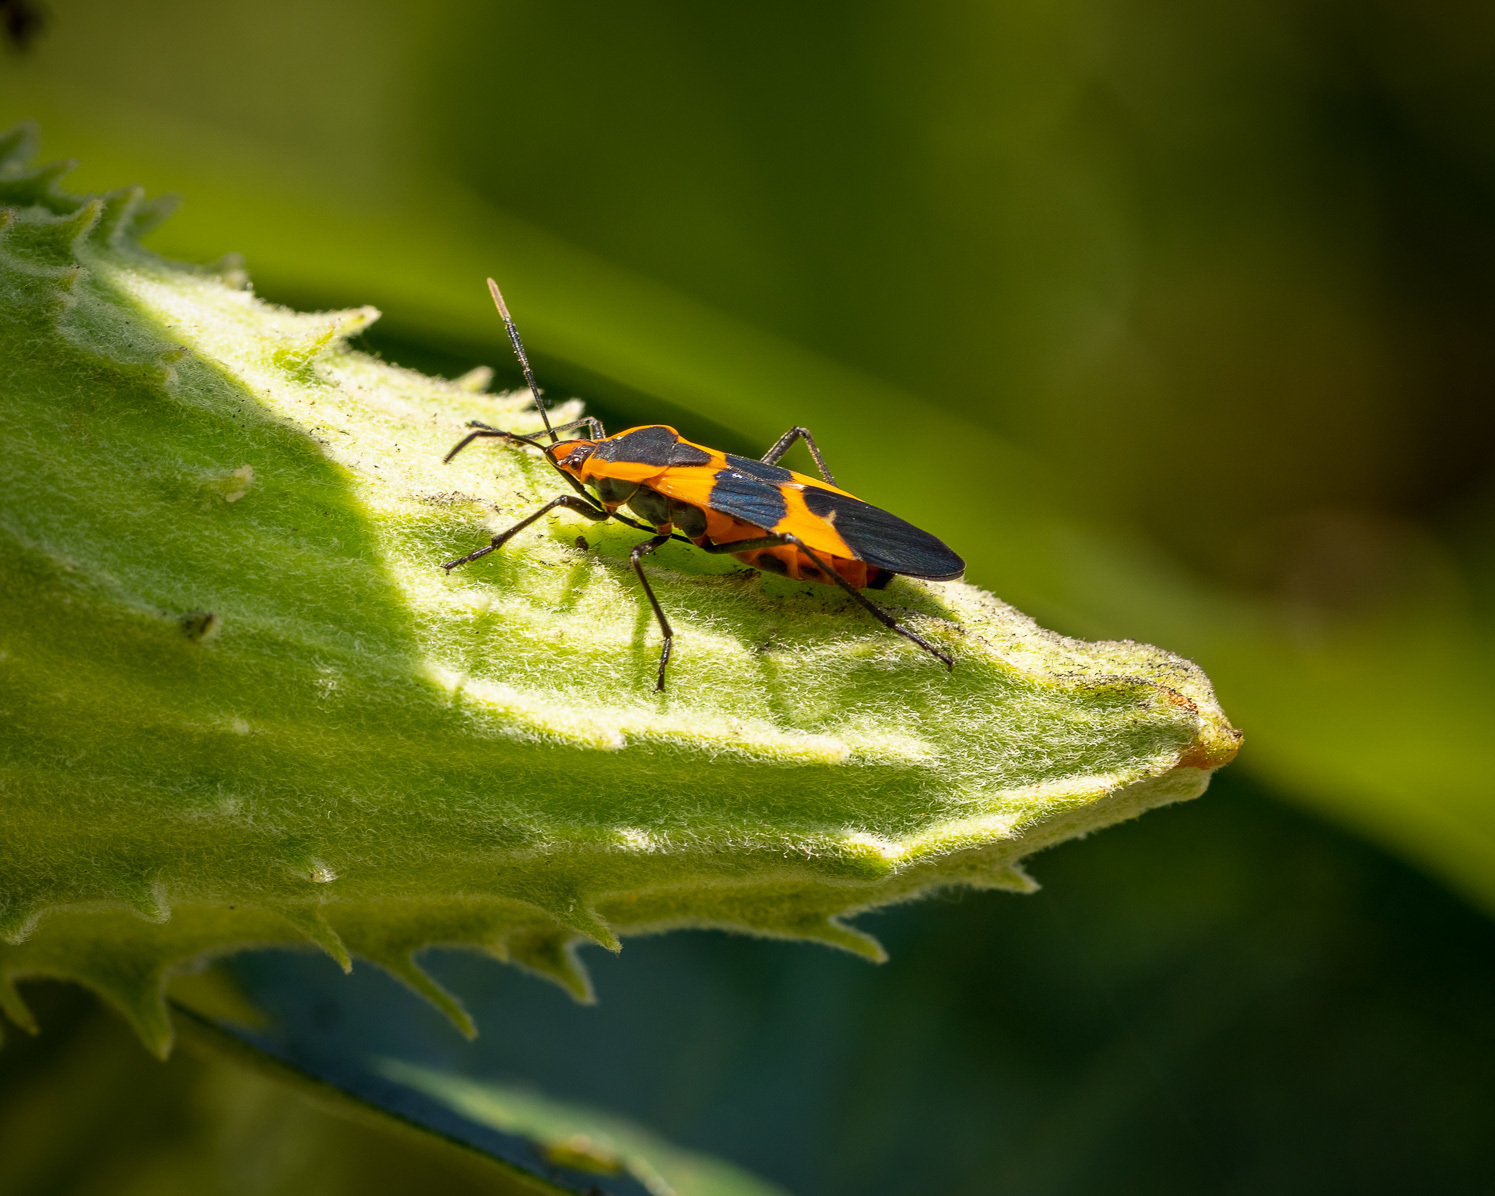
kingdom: Animalia
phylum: Arthropoda
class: Insecta
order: Hemiptera
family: Lygaeidae
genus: Oncopeltus
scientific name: Oncopeltus fasciatus
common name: Large milkweed bug
